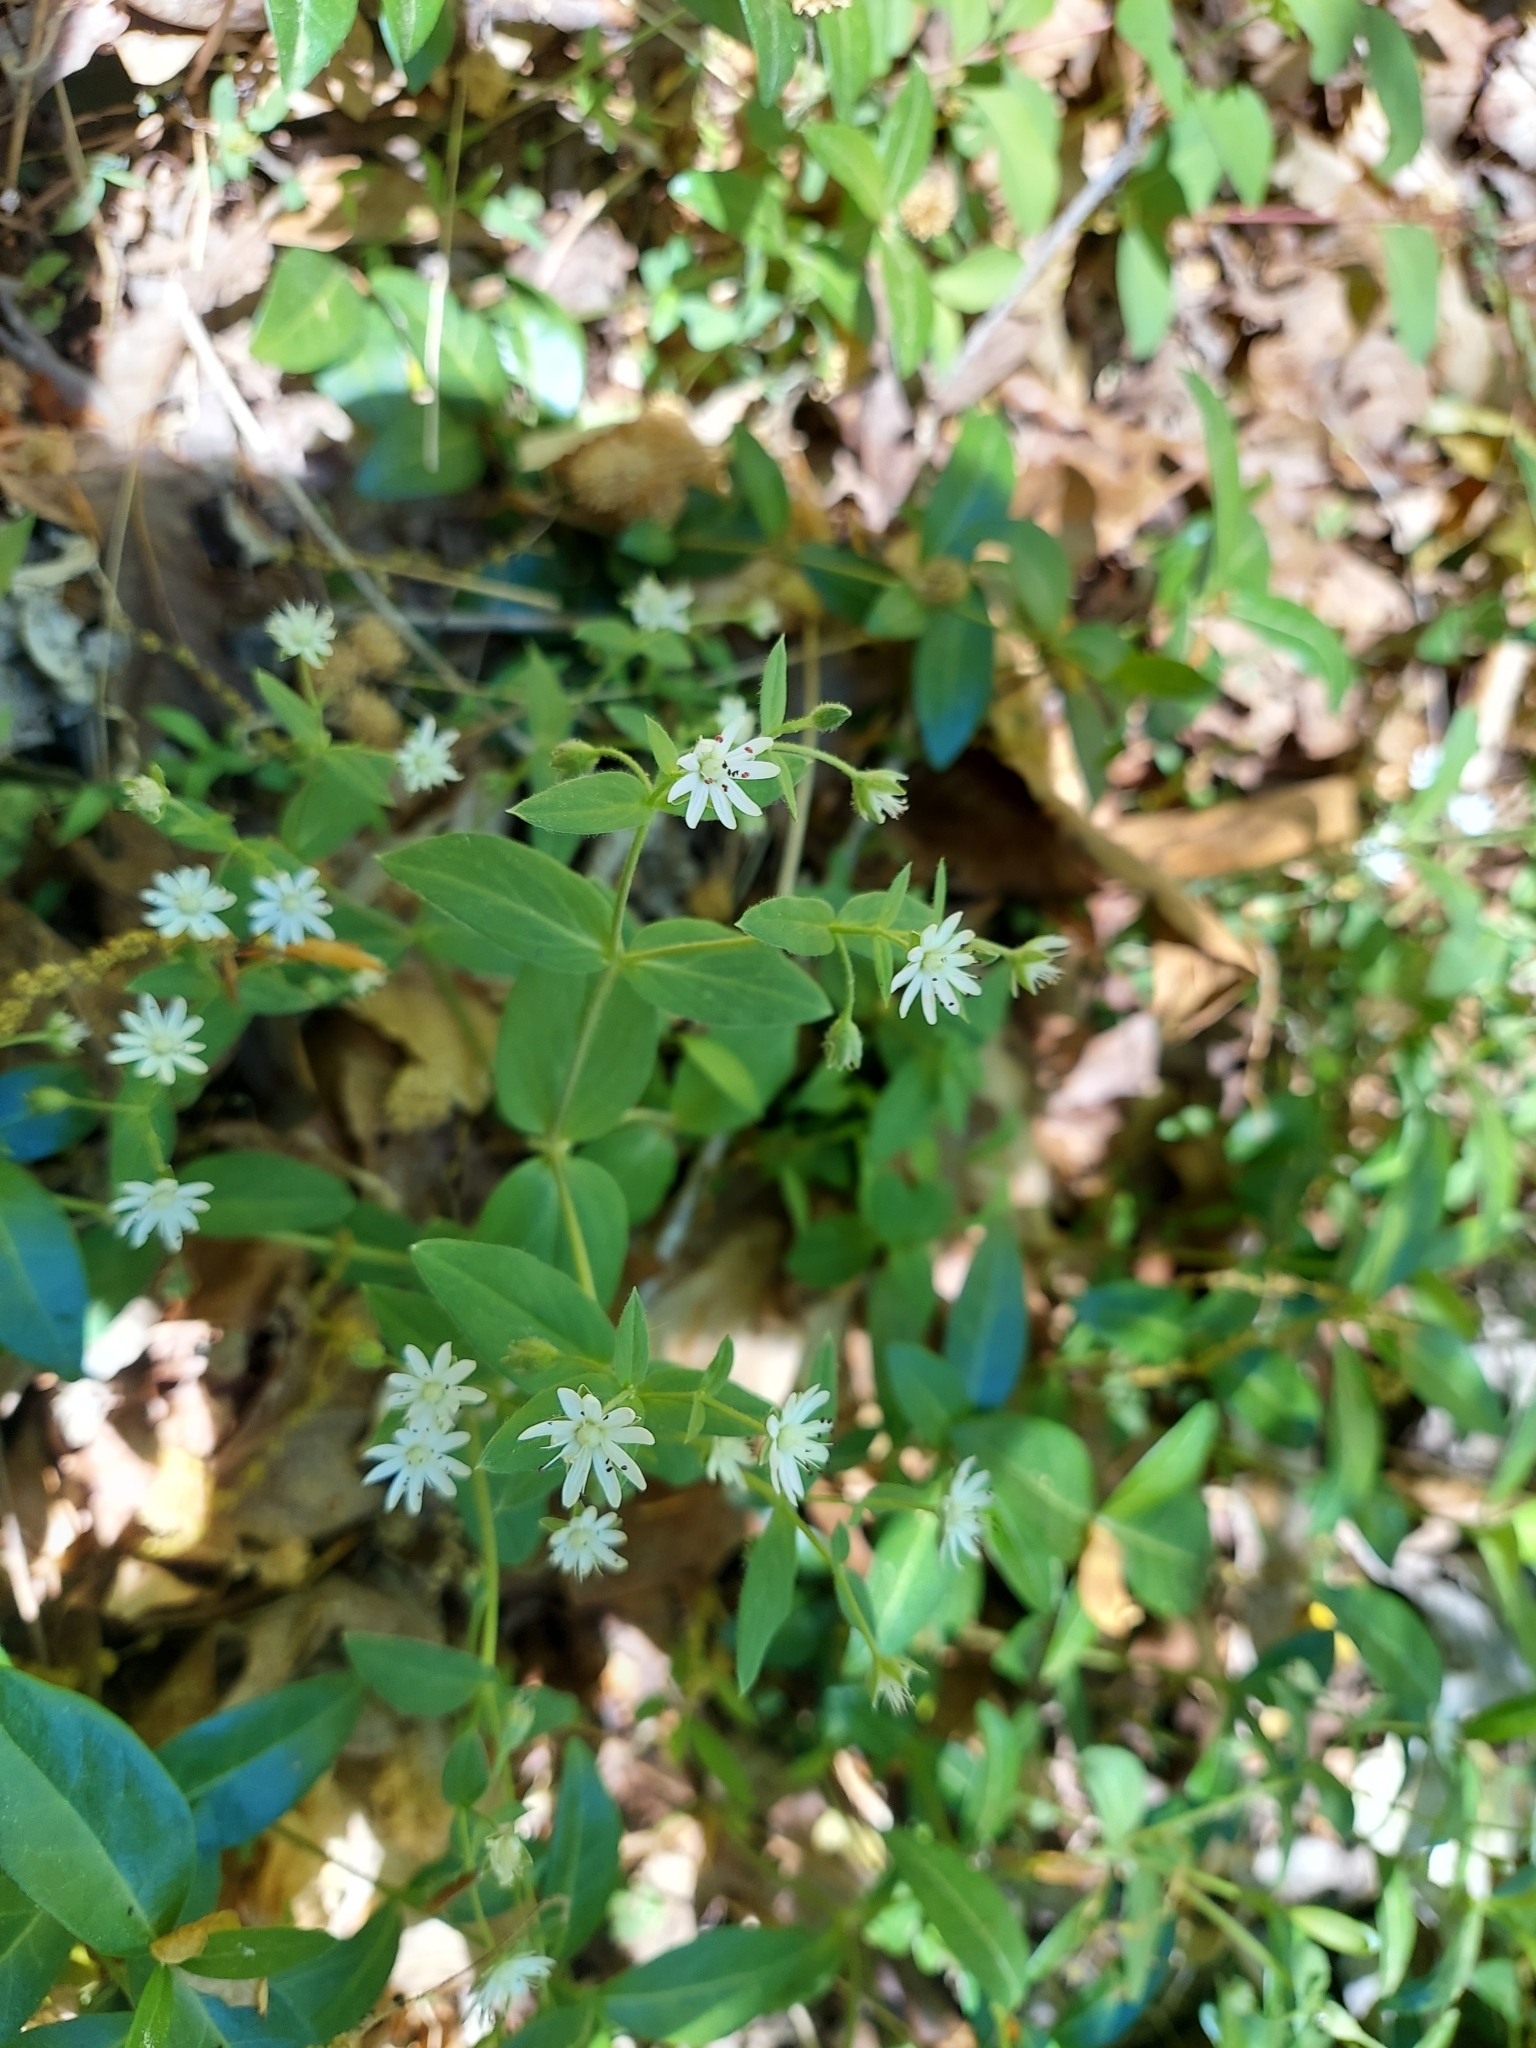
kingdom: Plantae
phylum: Tracheophyta
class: Magnoliopsida
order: Caryophyllales
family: Caryophyllaceae
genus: Stellaria
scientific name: Stellaria pubera
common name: Star chickweed
